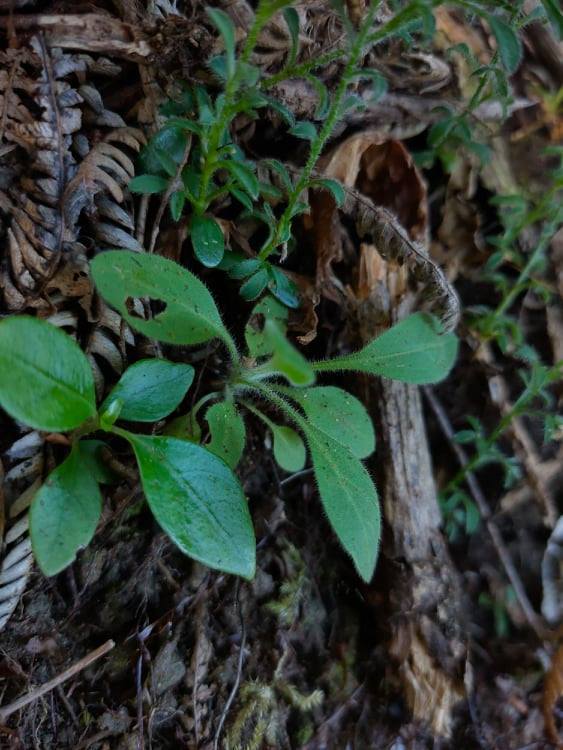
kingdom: Plantae
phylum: Tracheophyta
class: Magnoliopsida
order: Boraginales
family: Boraginaceae
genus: Myosotis
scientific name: Myosotis sylvatica
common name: Wood forget-me-not
